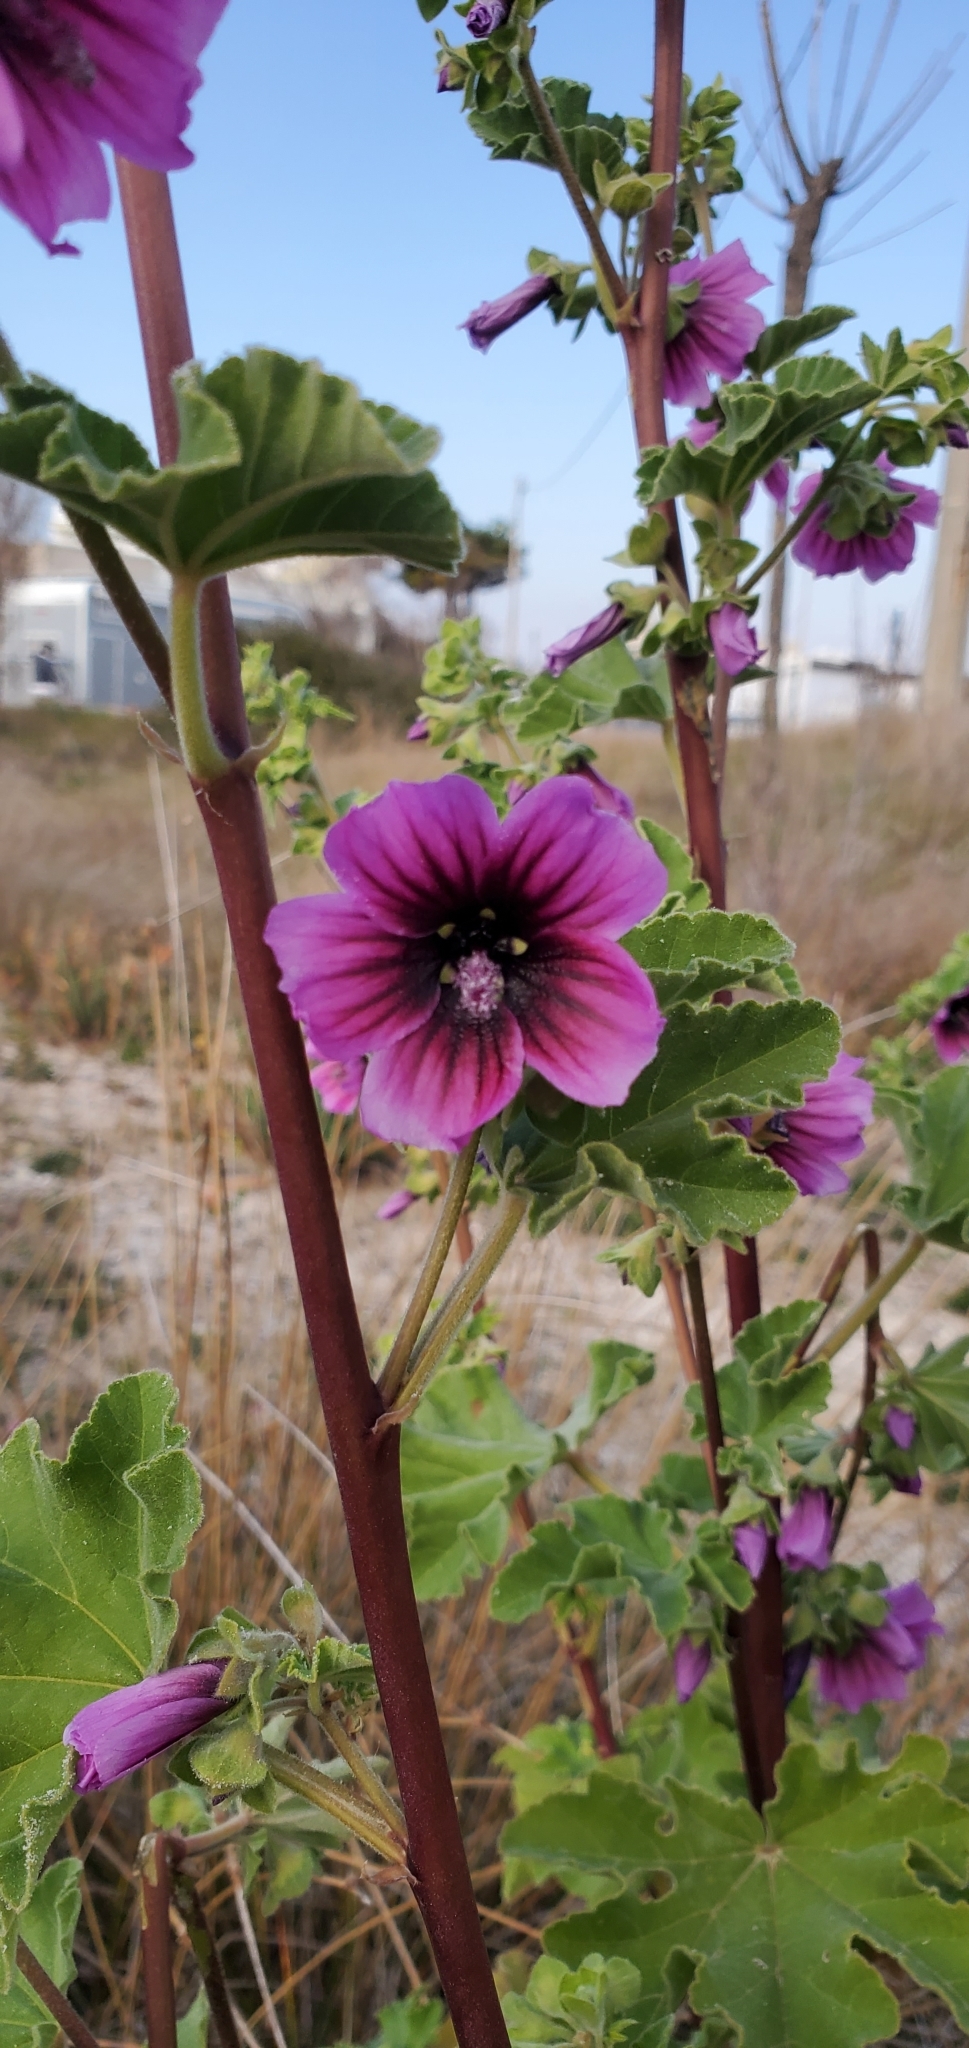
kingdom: Plantae
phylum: Tracheophyta
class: Magnoliopsida
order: Malvales
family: Malvaceae
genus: Malva
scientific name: Malva arborea
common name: Tree mallow
